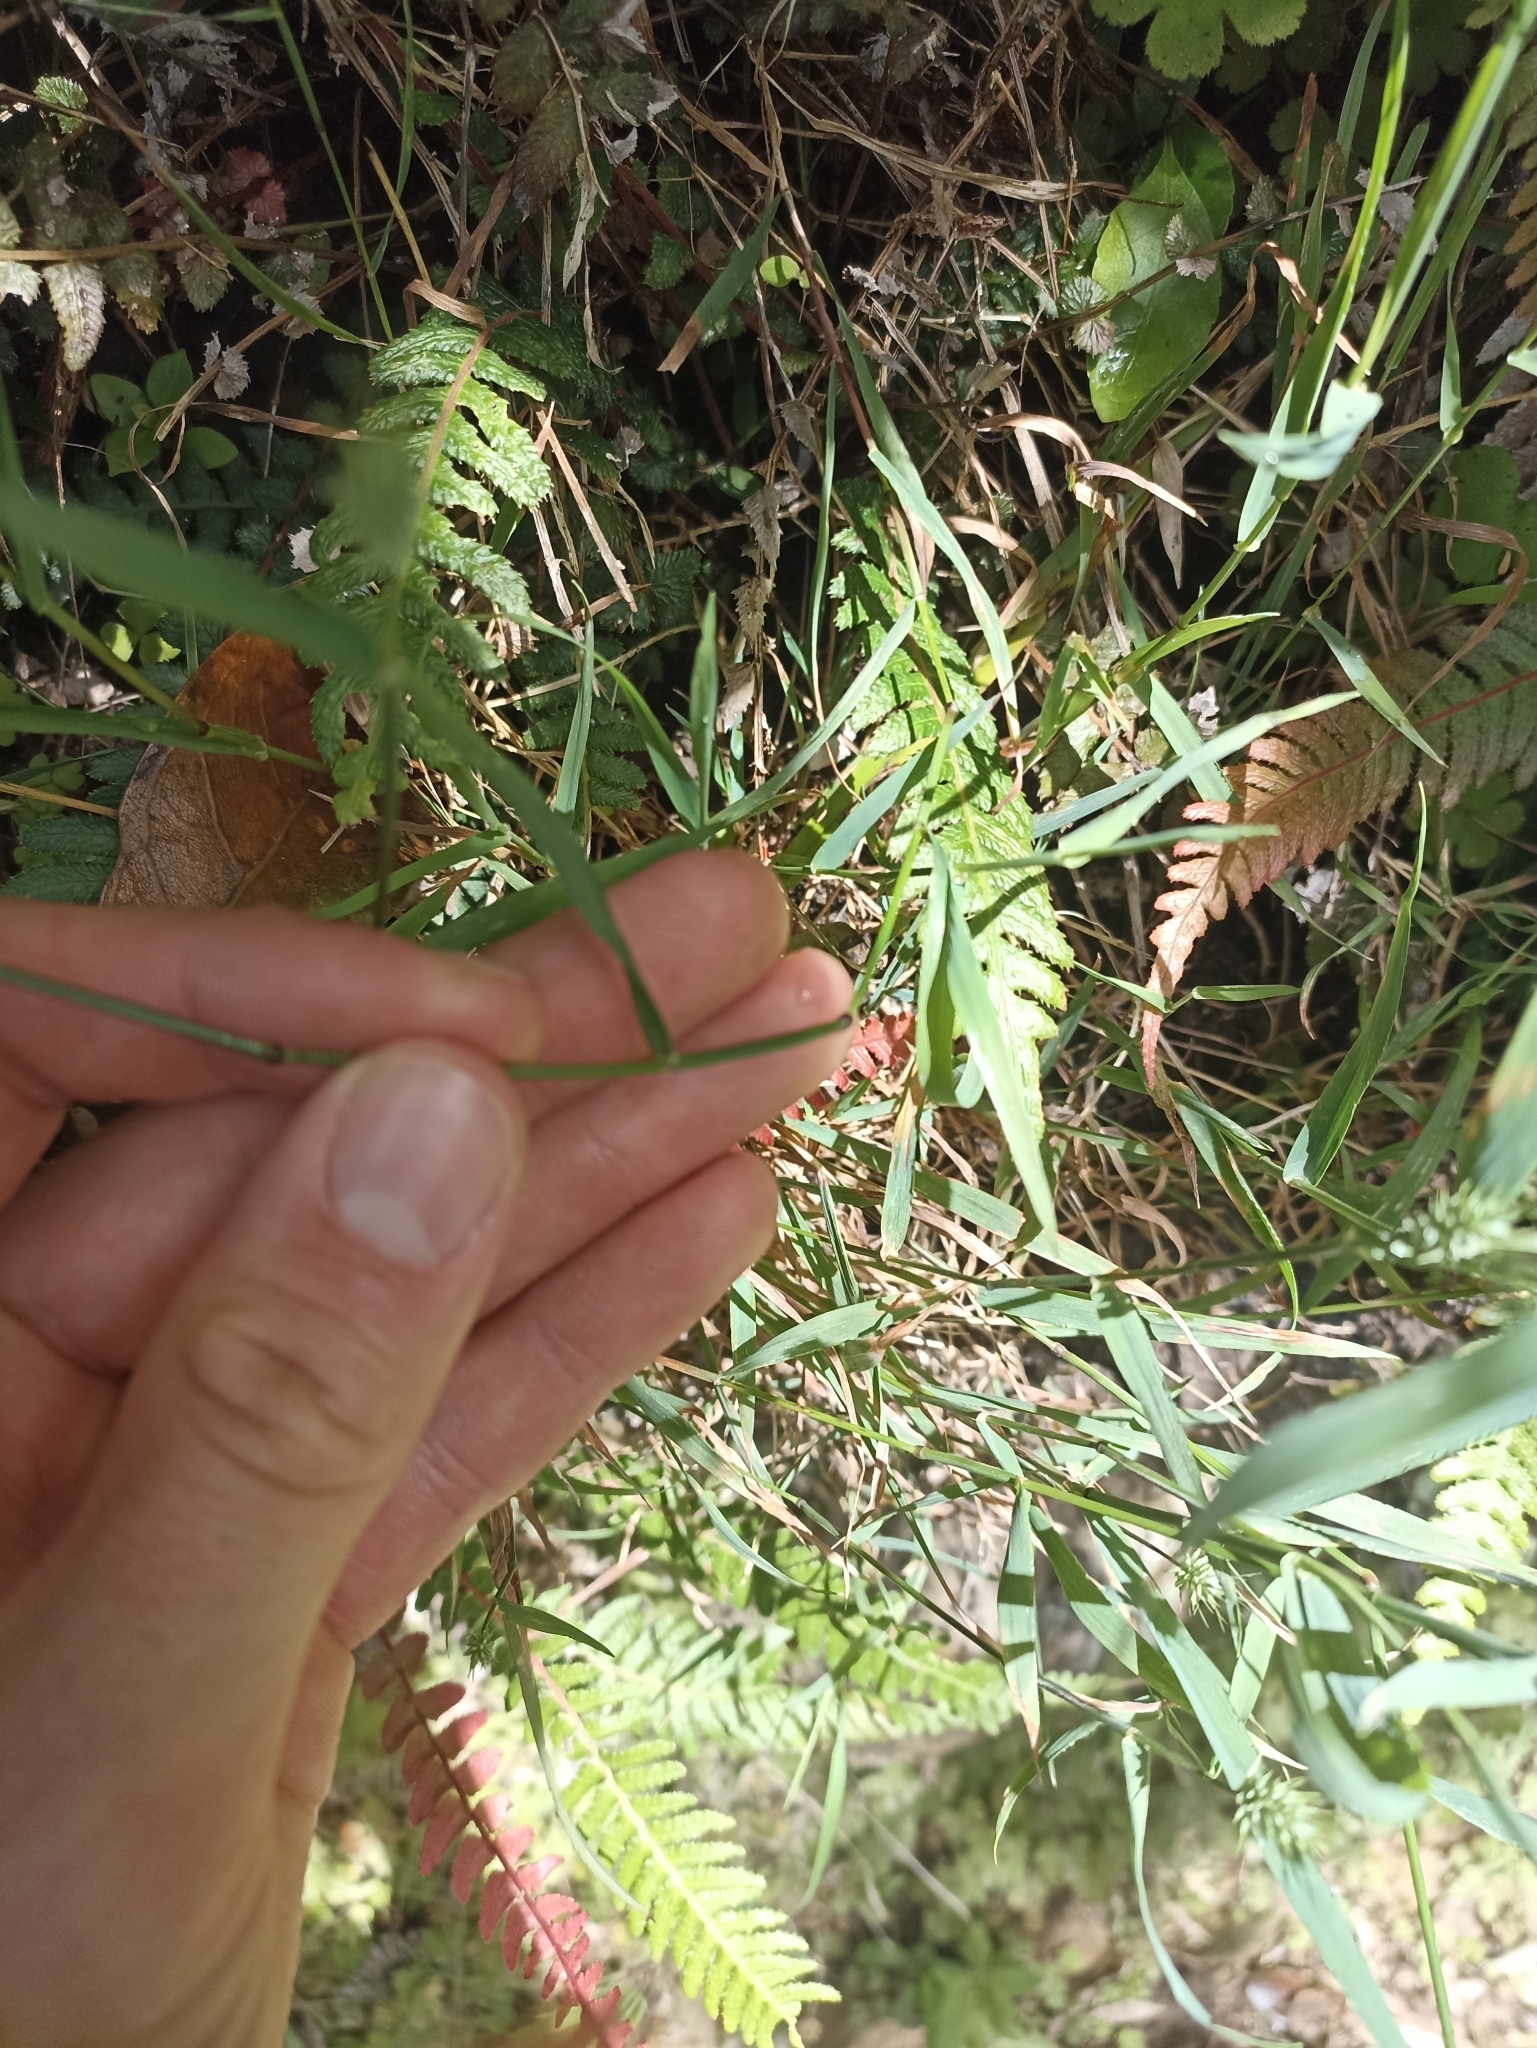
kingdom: Plantae
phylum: Tracheophyta
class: Liliopsida
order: Poales
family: Poaceae
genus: Echinopogon
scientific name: Echinopogon ovatus
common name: Hedgehog-grass
